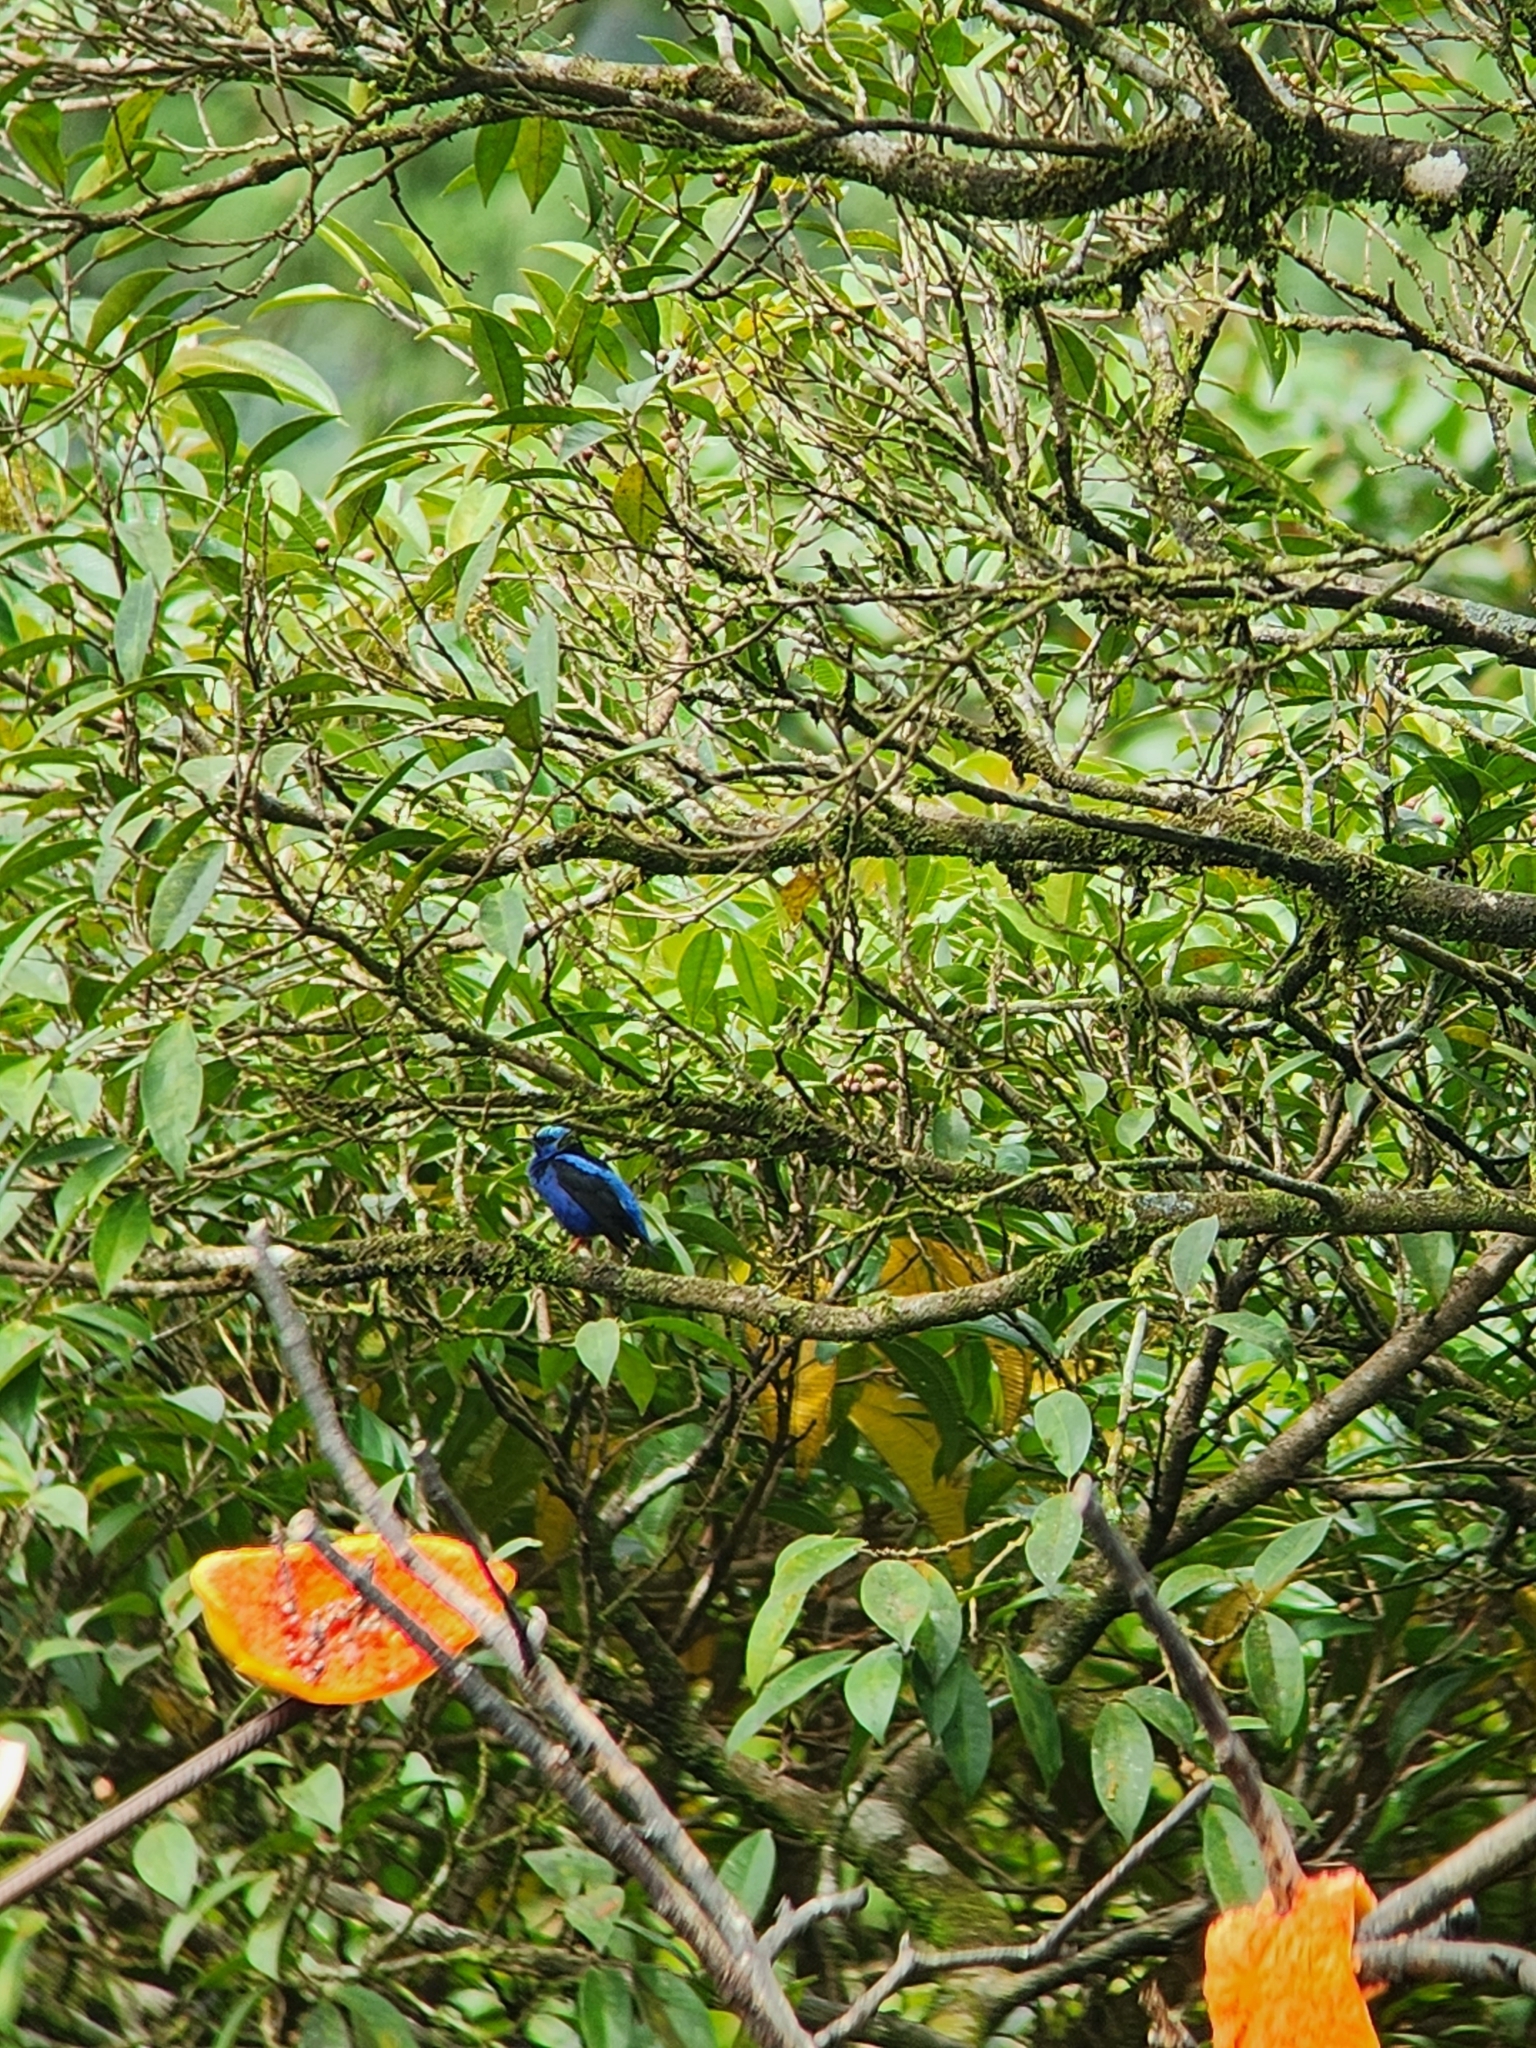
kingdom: Animalia
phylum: Chordata
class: Aves
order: Passeriformes
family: Thraupidae
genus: Cyanerpes
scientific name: Cyanerpes cyaneus
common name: Red-legged honeycreeper
